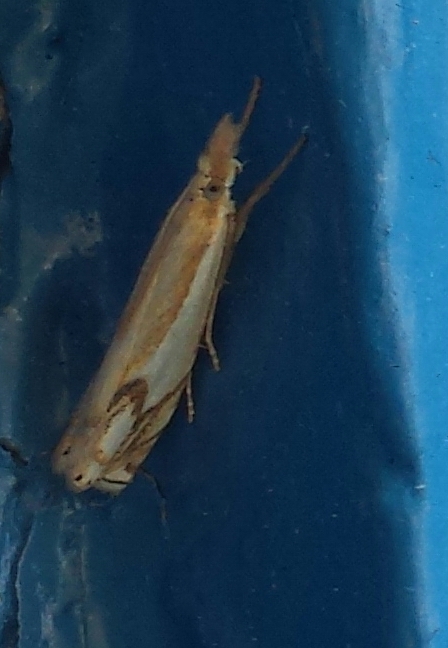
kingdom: Animalia
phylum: Arthropoda
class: Insecta
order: Lepidoptera
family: Crambidae
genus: Crambus
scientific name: Crambus agitatellus
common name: Double-banded grass-veneer
